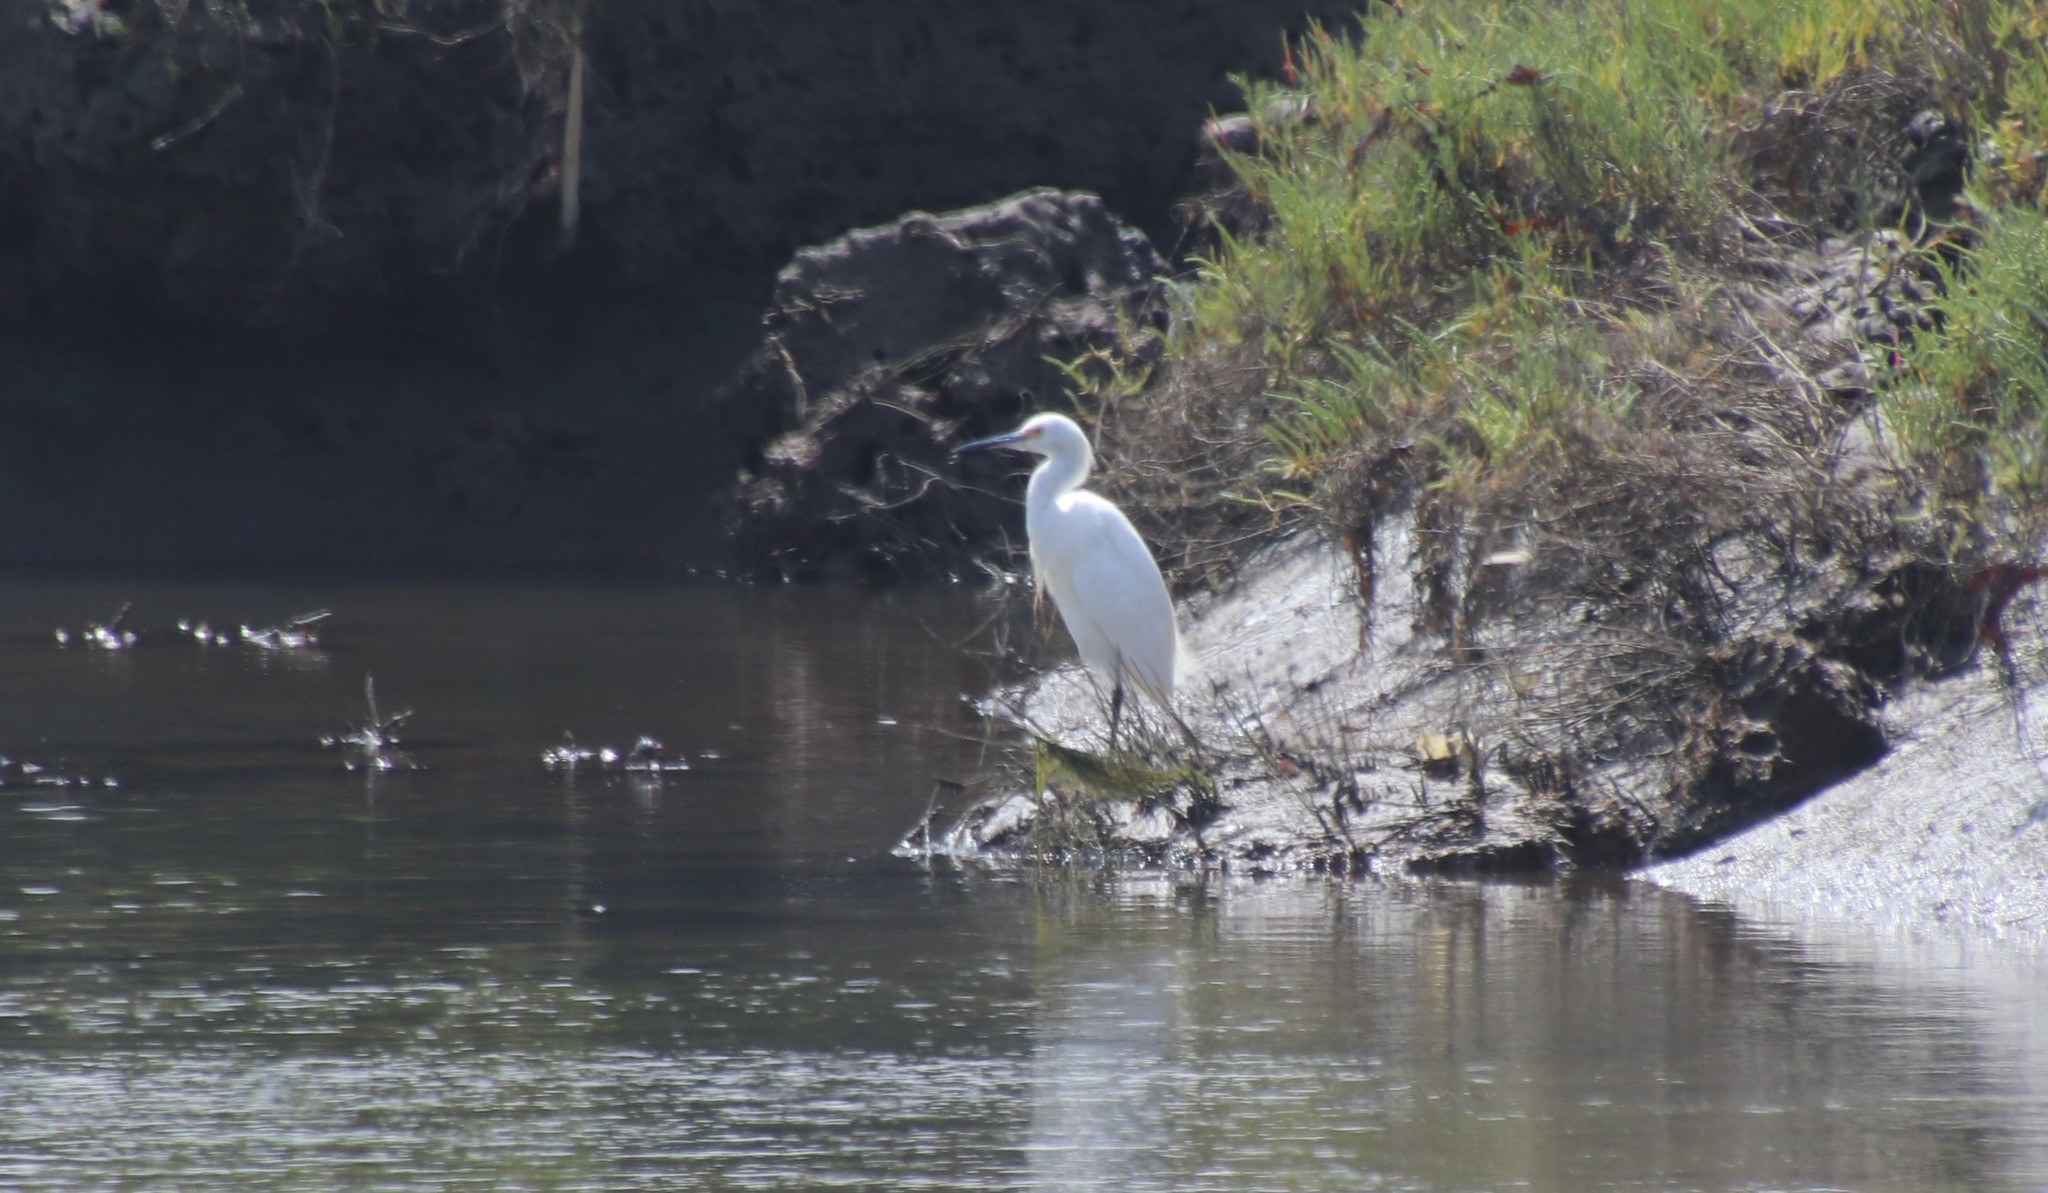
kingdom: Animalia
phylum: Chordata
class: Aves
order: Pelecaniformes
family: Ardeidae
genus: Egretta
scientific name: Egretta thula
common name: Snowy egret
